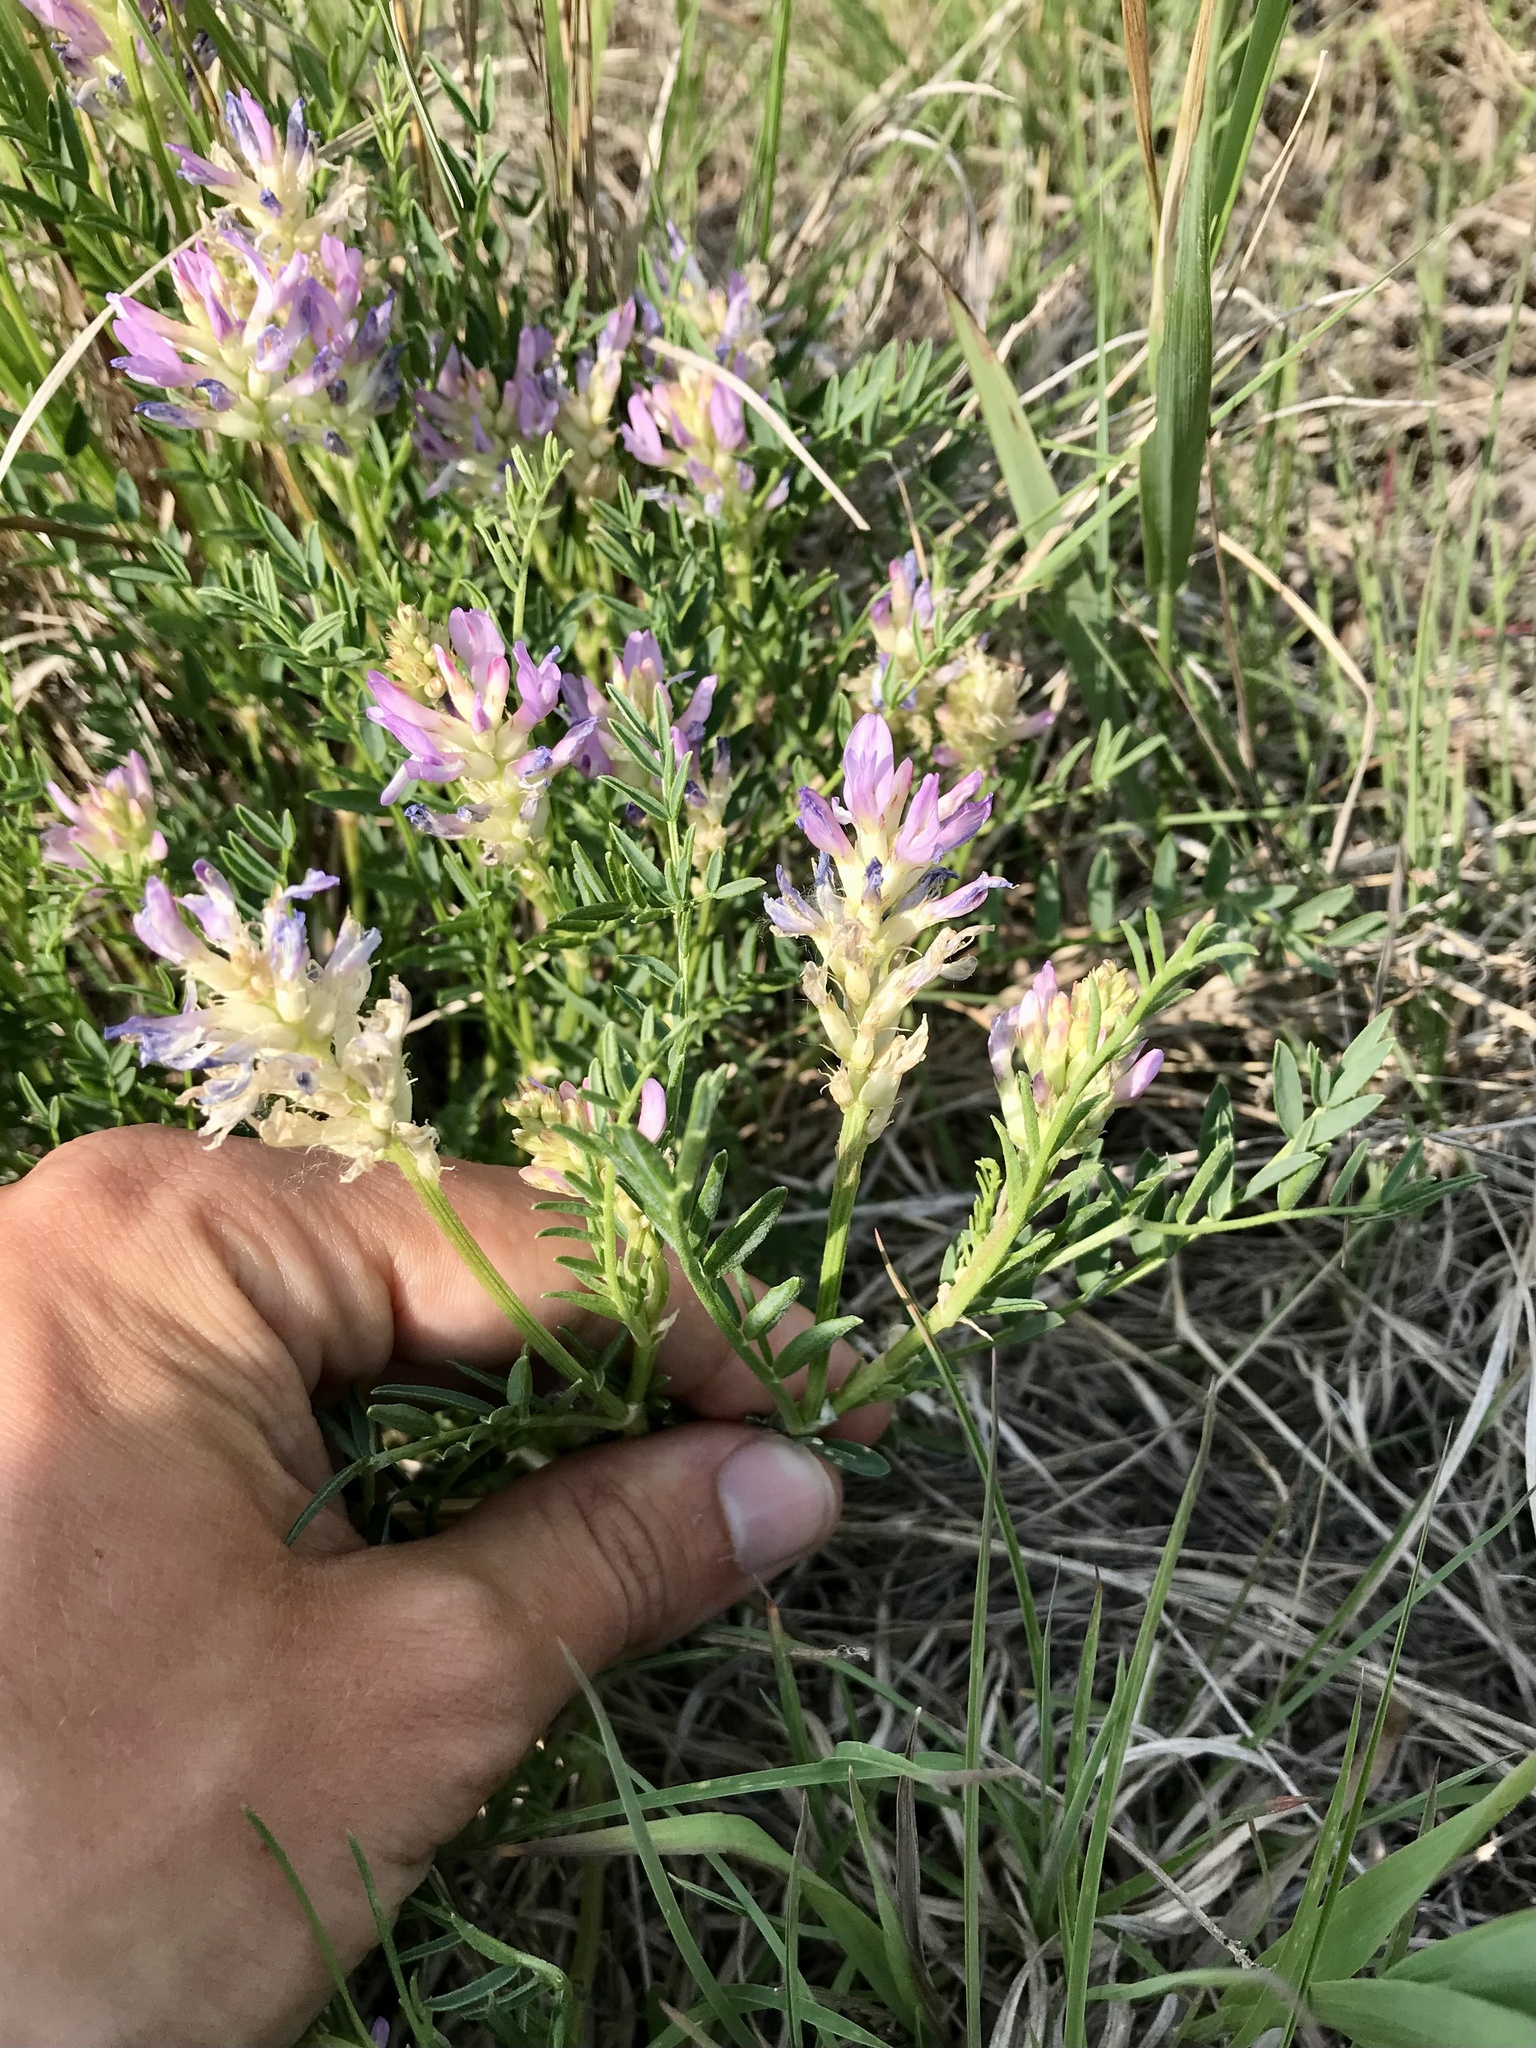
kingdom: Plantae
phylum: Tracheophyta
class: Magnoliopsida
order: Fabales
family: Fabaceae
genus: Astragalus
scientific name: Astragalus laxmannii
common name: Laxmann's milk-vetch
